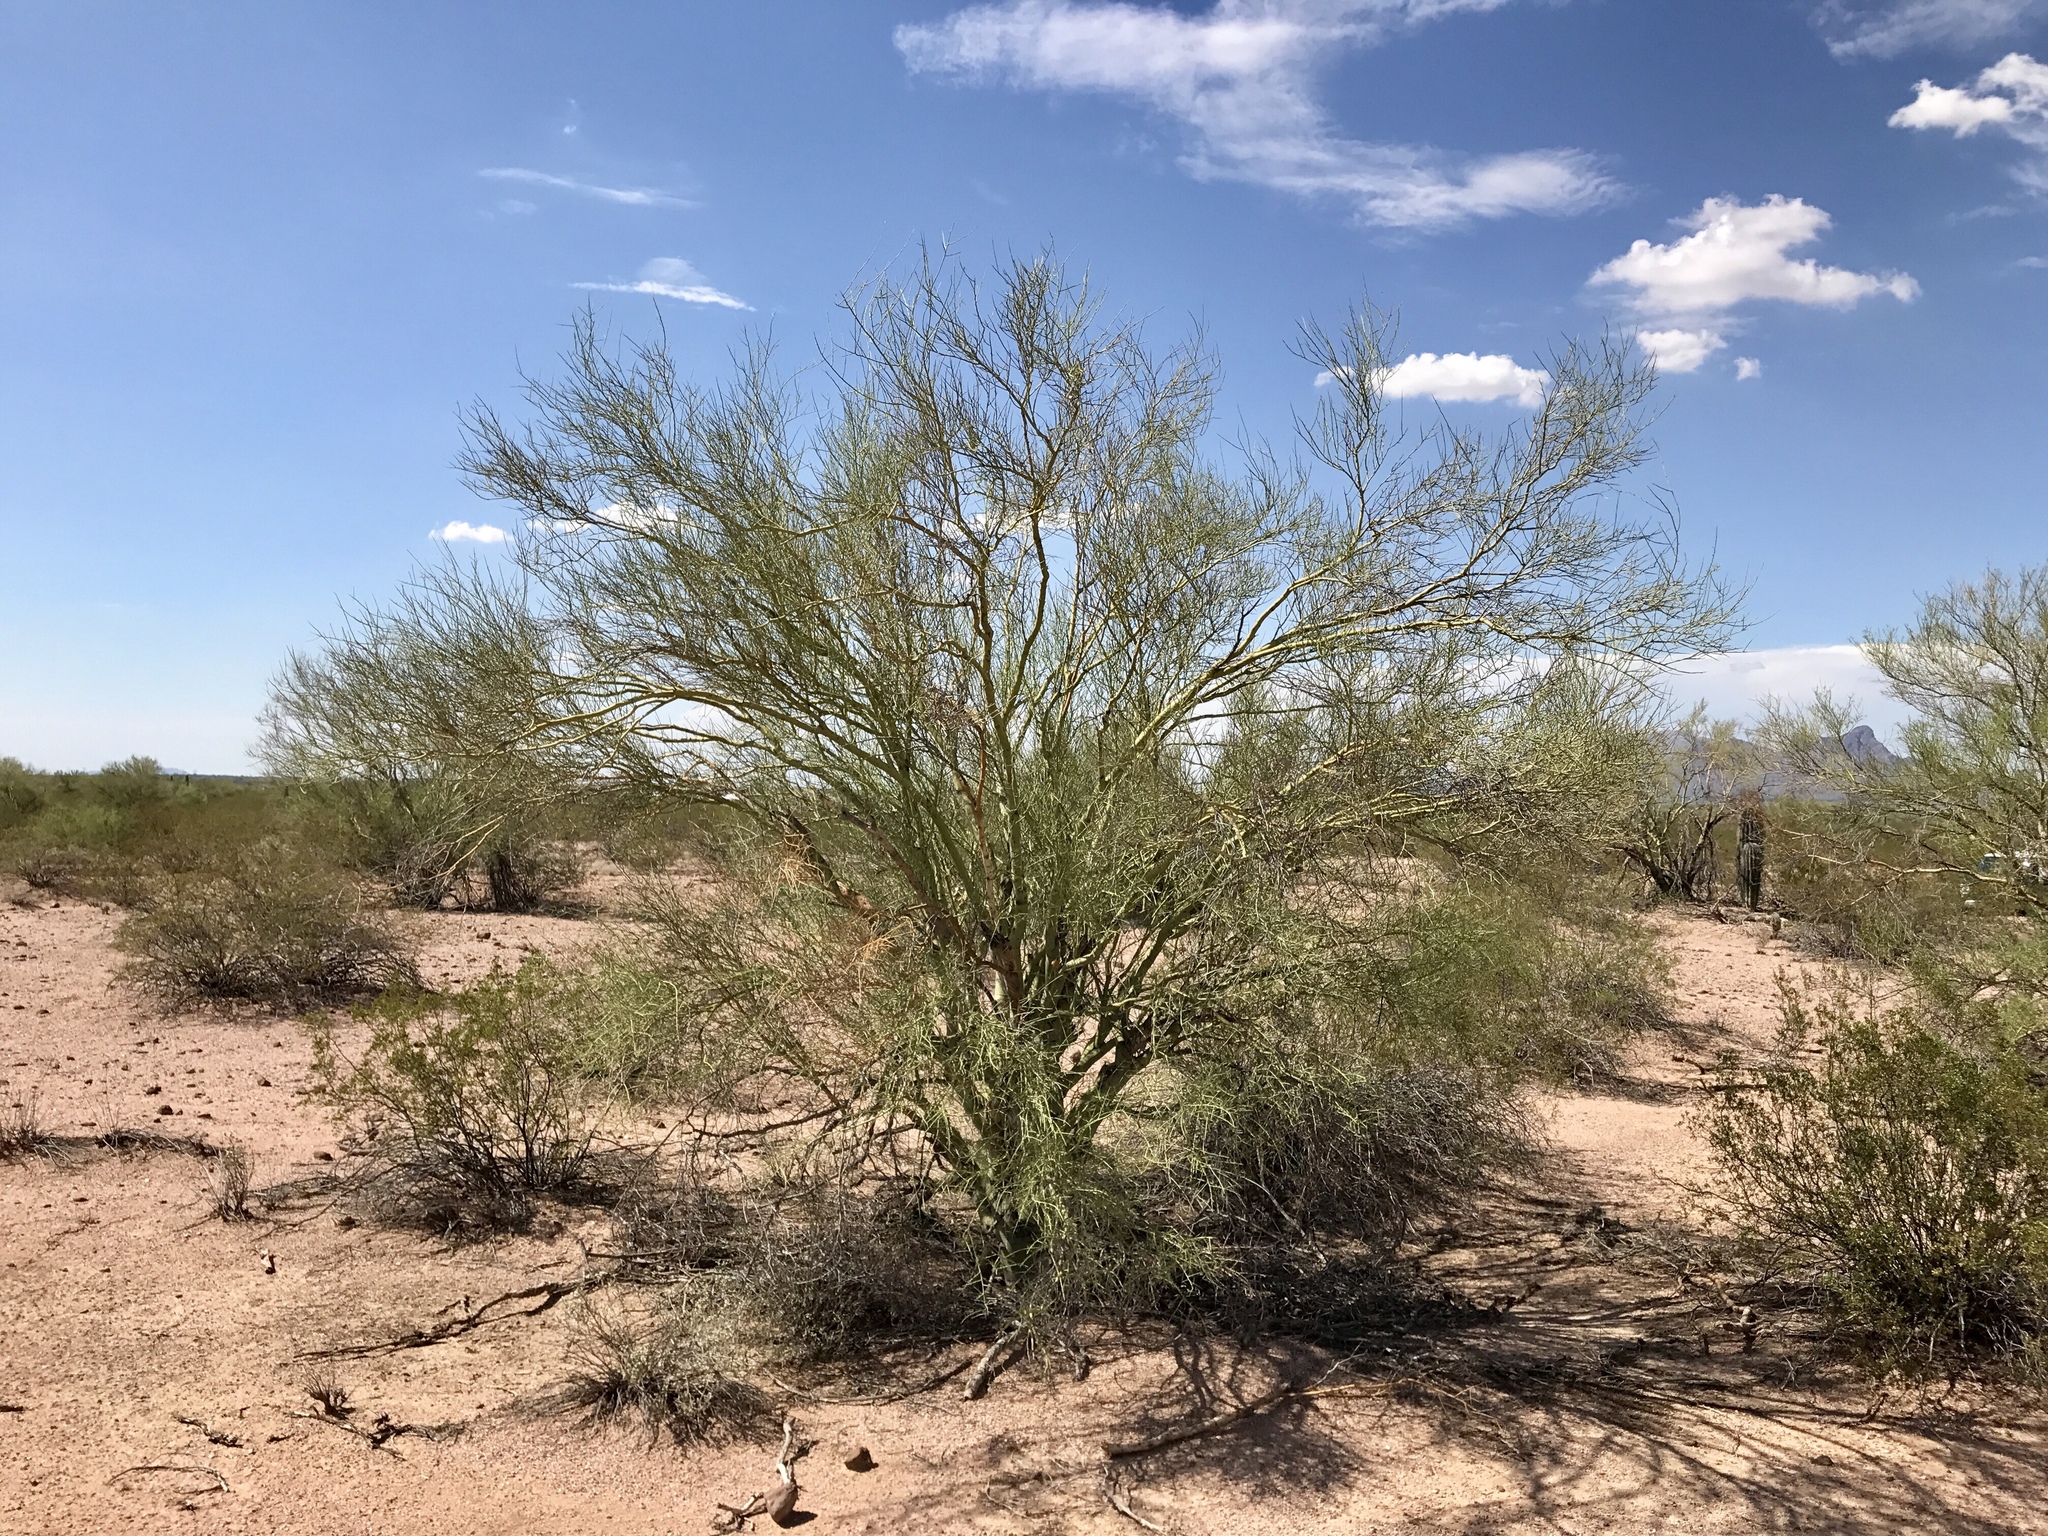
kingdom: Plantae
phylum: Tracheophyta
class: Magnoliopsida
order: Fabales
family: Fabaceae
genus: Parkinsonia
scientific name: Parkinsonia florida
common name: Blue paloverde
